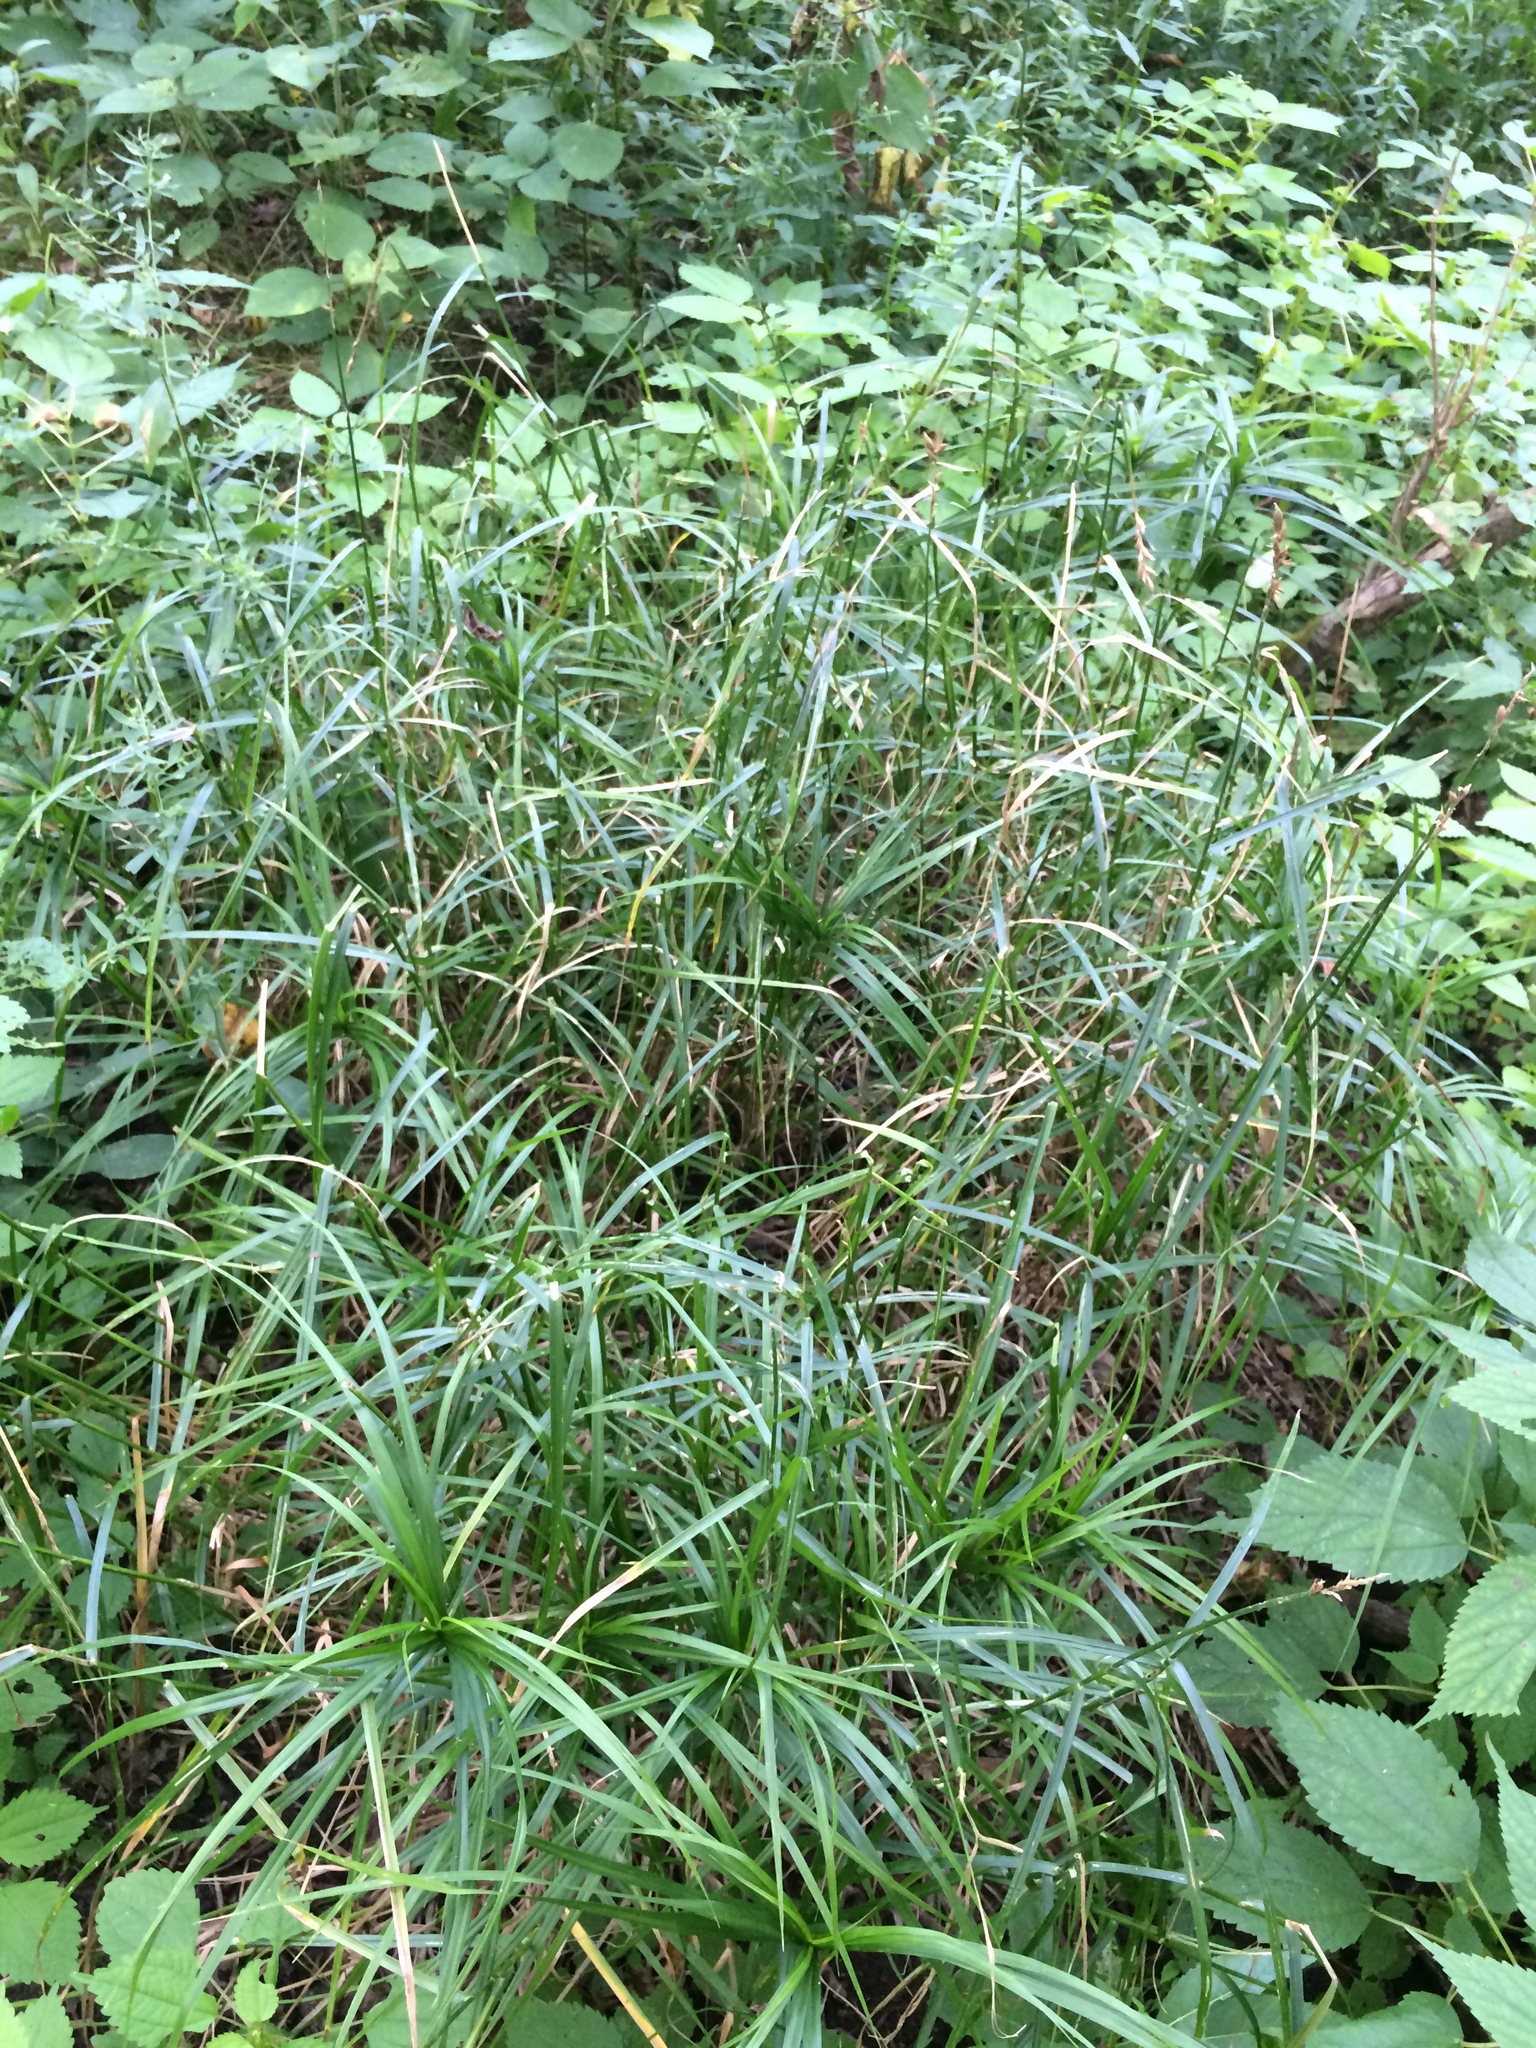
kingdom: Plantae
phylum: Tracheophyta
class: Liliopsida
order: Poales
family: Cyperaceae
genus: Carex
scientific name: Carex muskingumensis
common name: Muskingum sedge
